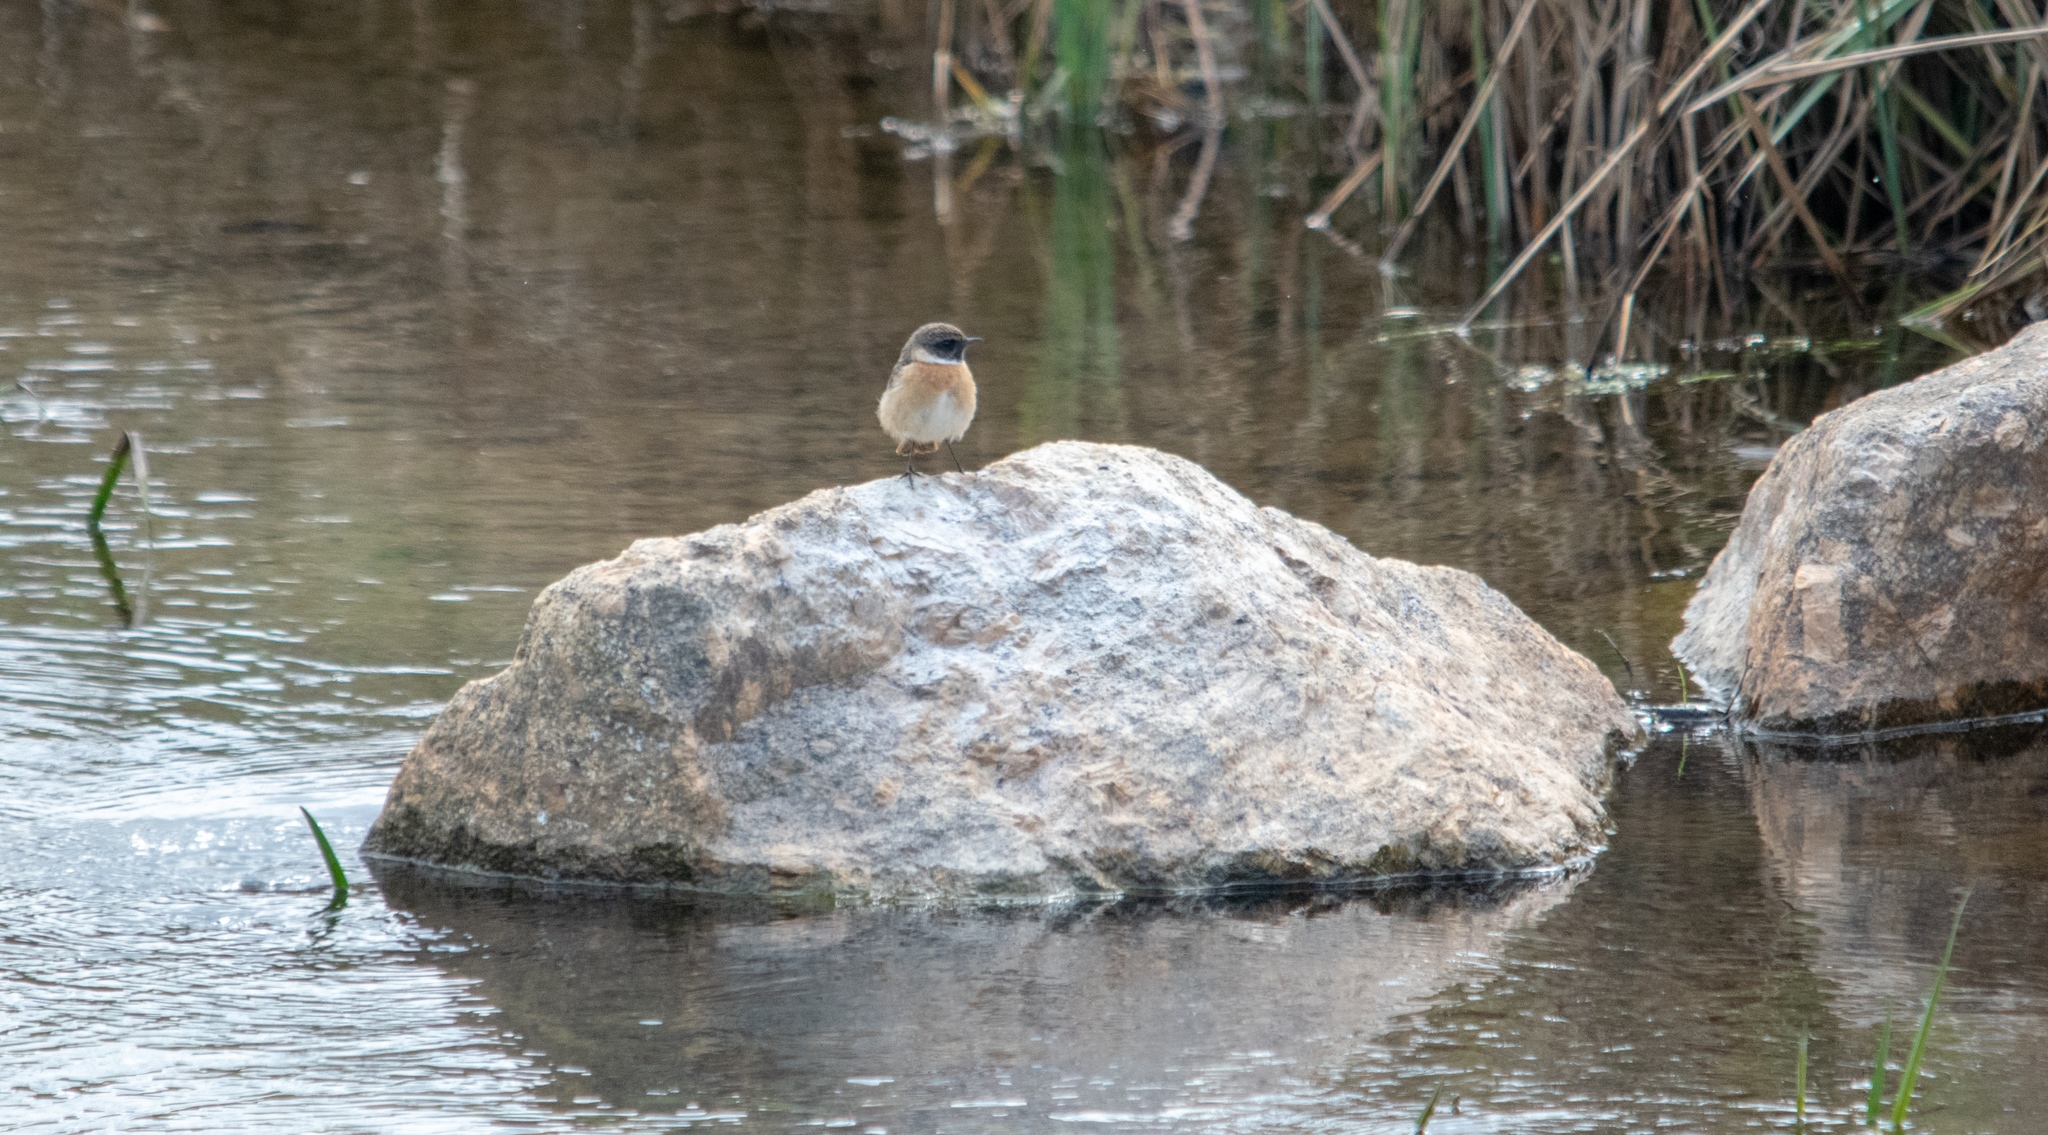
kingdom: Animalia
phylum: Chordata
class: Aves
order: Passeriformes
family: Muscicapidae
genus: Saxicola
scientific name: Saxicola rubicola
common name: European stonechat
